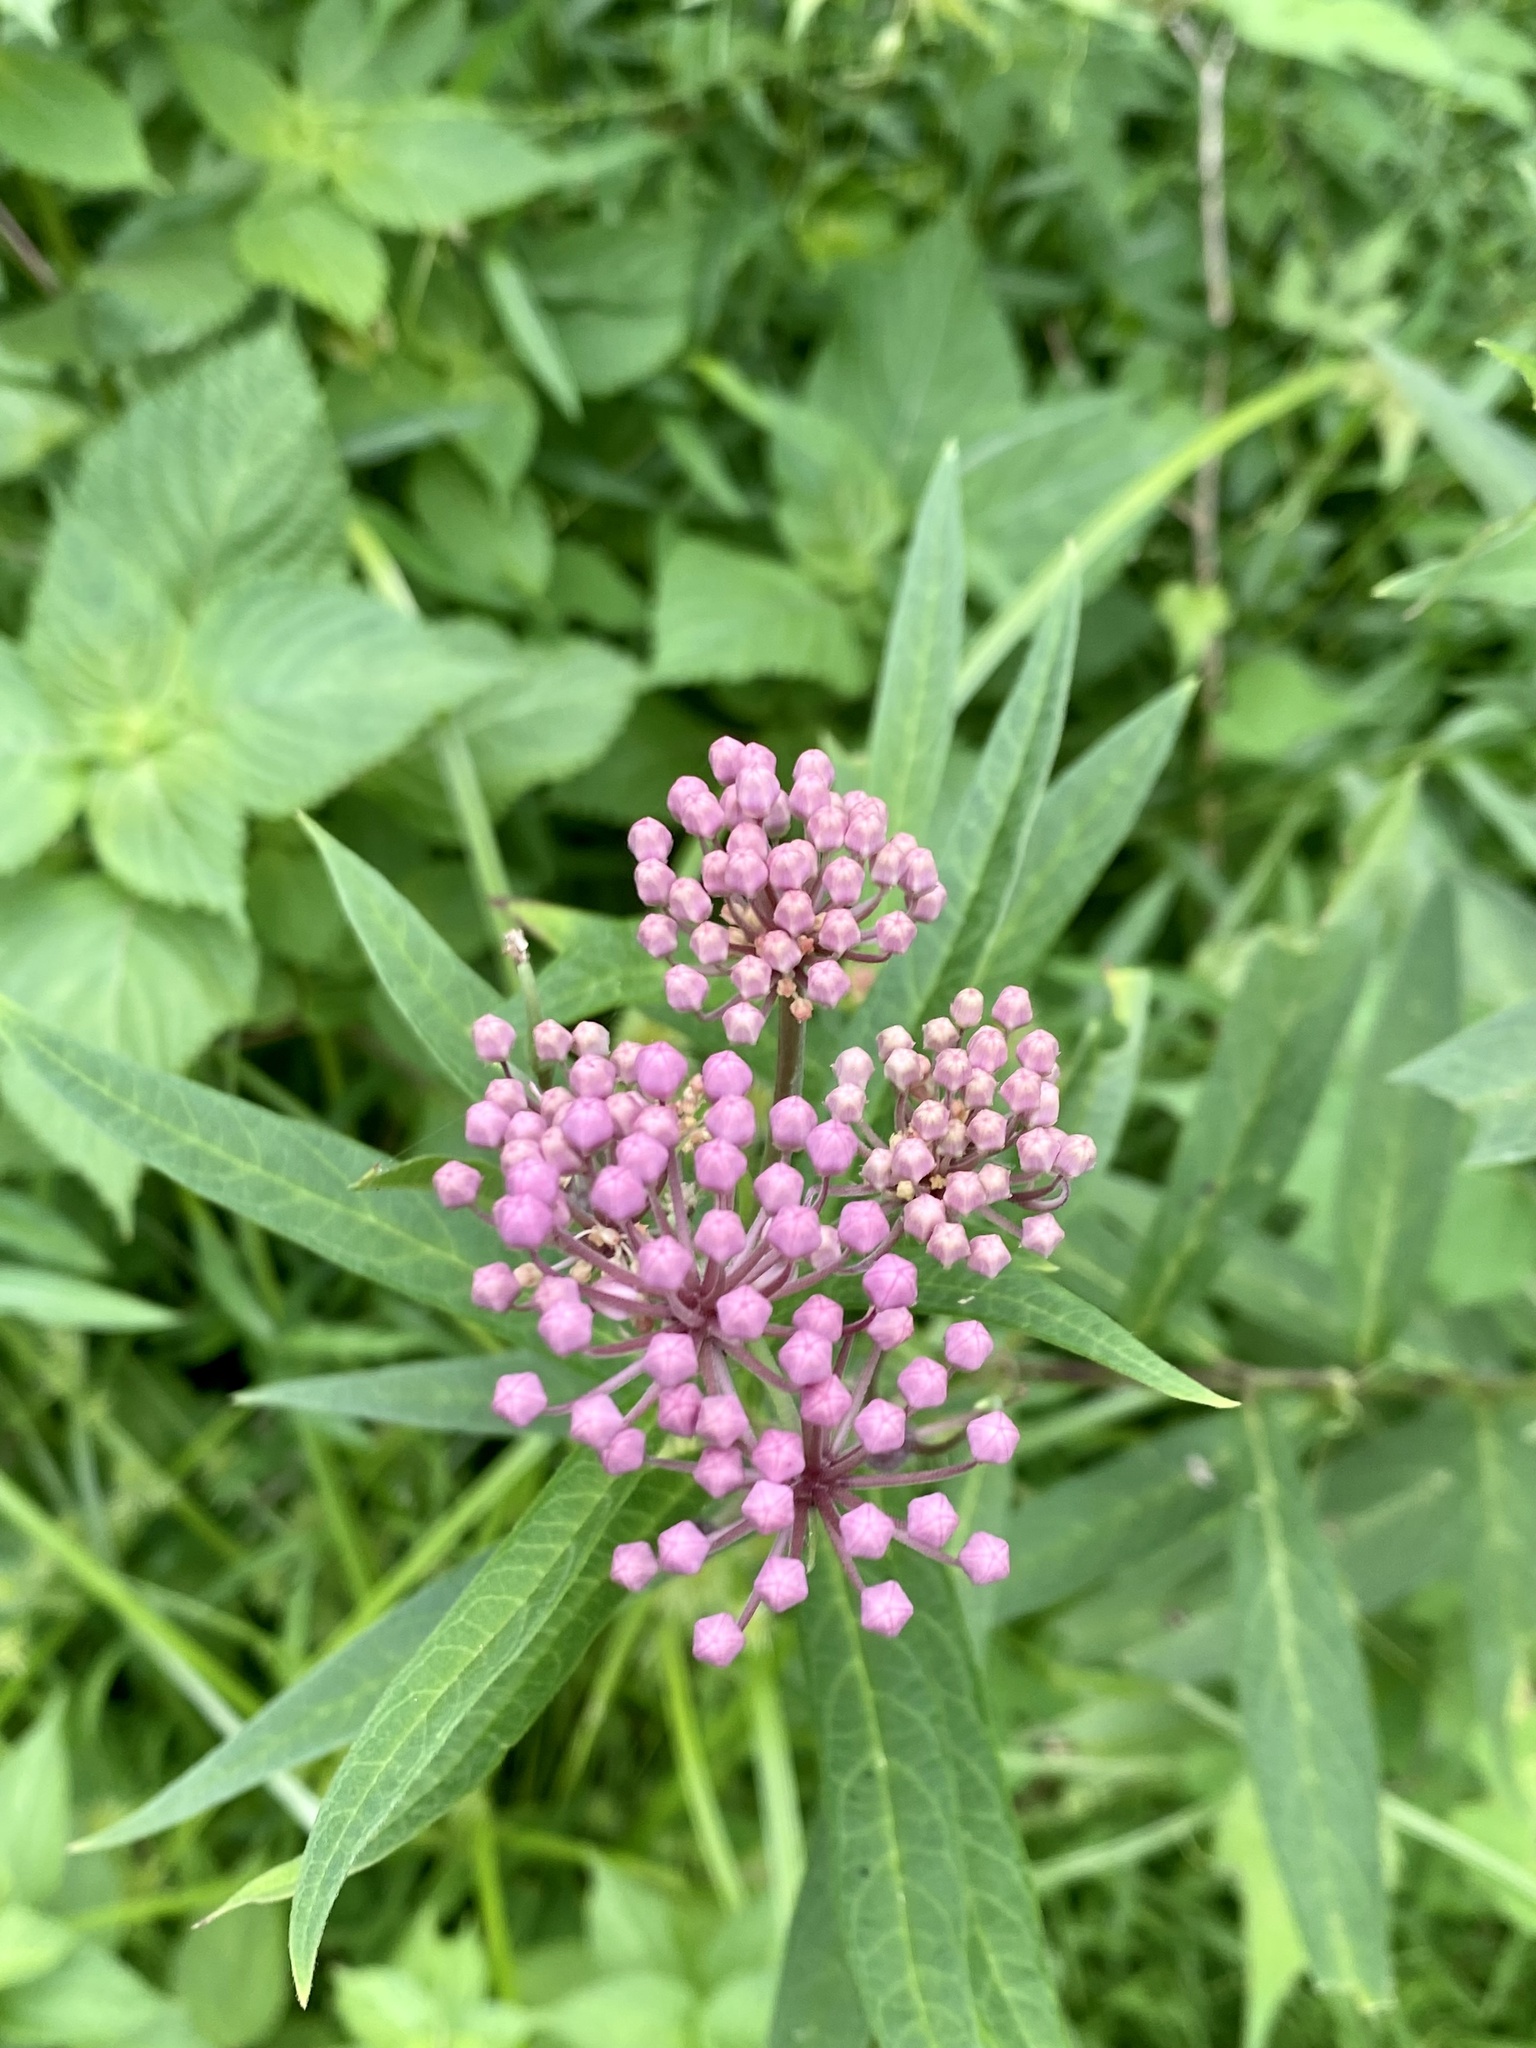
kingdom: Plantae
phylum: Tracheophyta
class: Magnoliopsida
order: Gentianales
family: Apocynaceae
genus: Asclepias
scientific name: Asclepias incarnata
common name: Swamp milkweed
